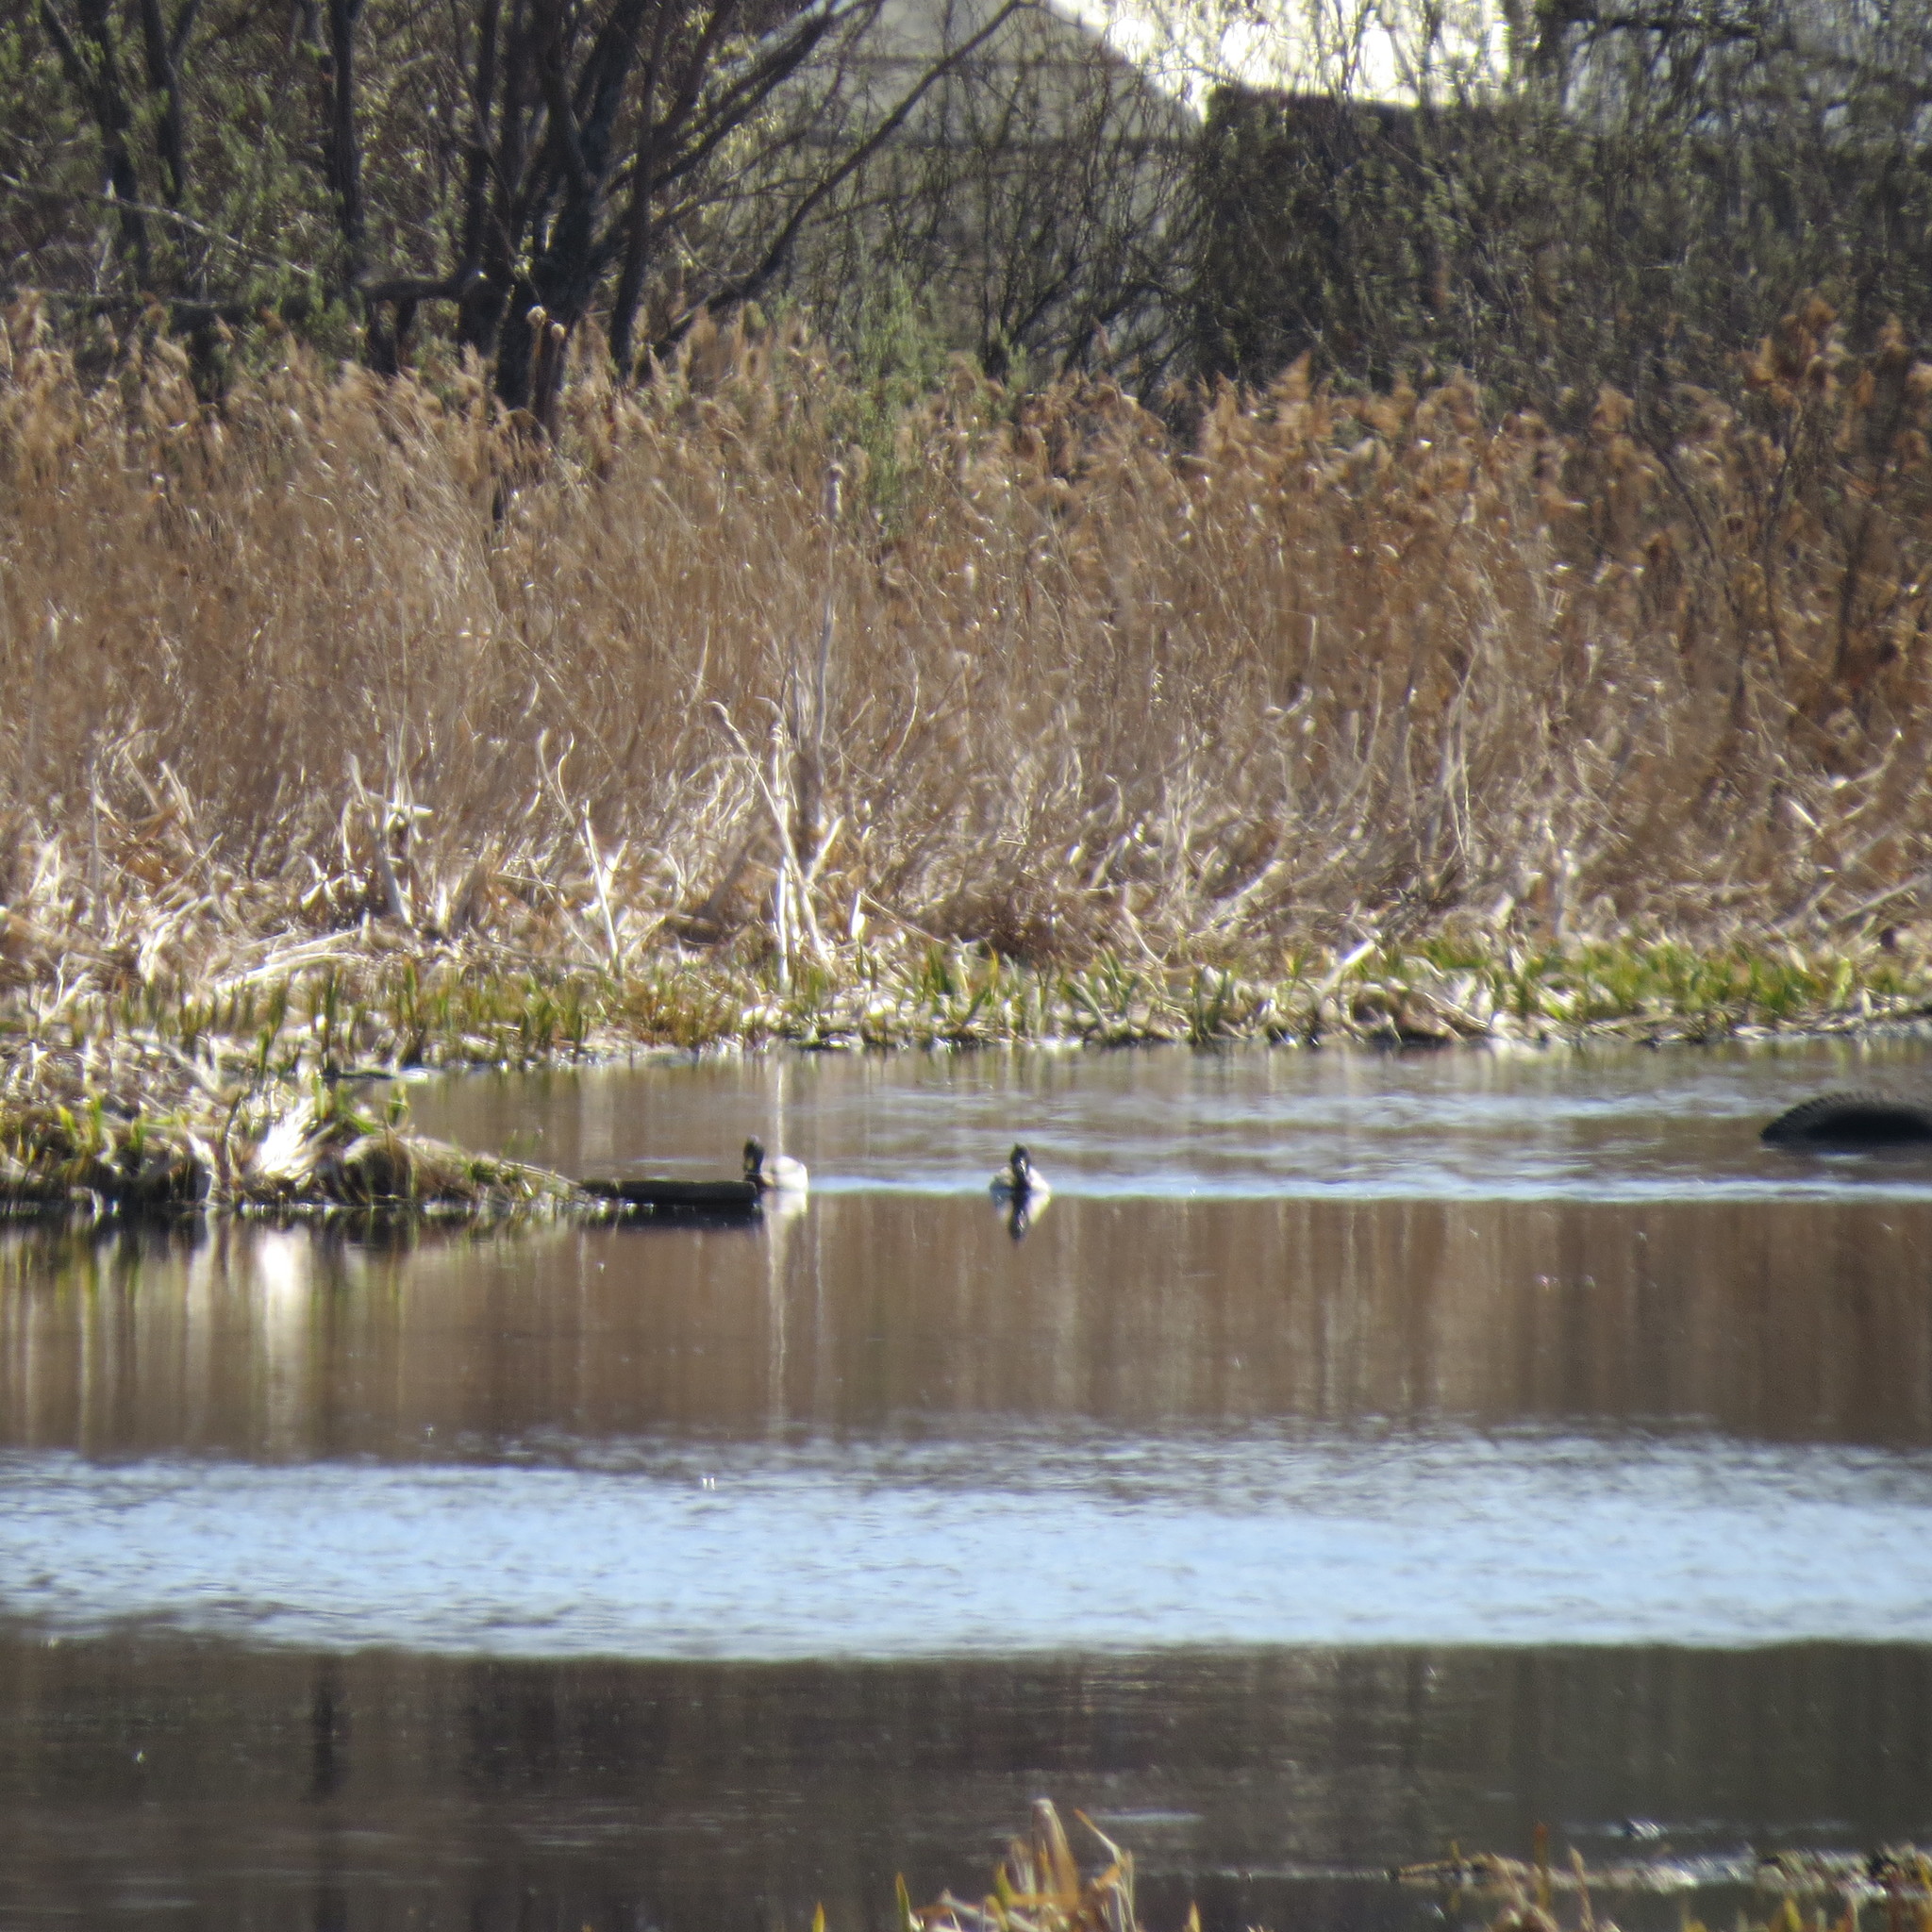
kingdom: Animalia
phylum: Chordata
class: Aves
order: Anseriformes
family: Anatidae
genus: Anas
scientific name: Anas platyrhynchos
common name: Mallard
